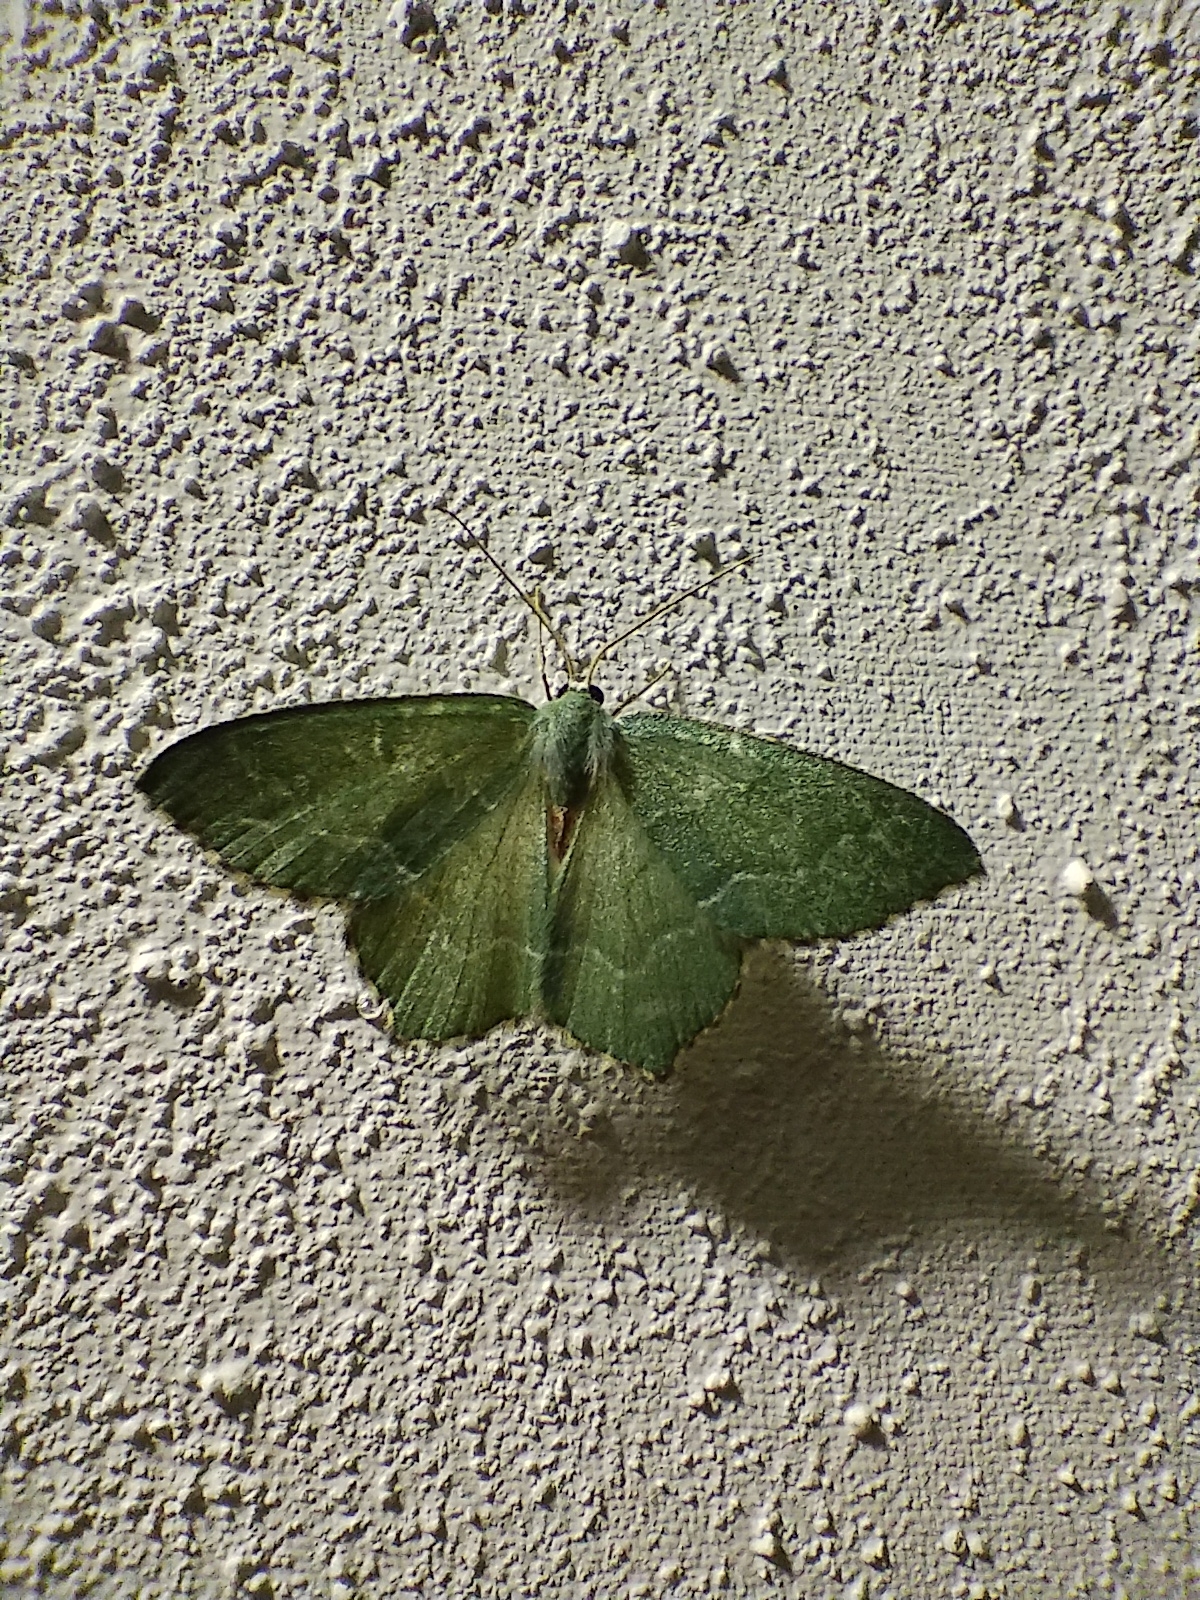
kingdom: Animalia
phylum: Arthropoda
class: Insecta
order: Lepidoptera
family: Geometridae
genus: Hemithea
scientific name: Hemithea aestivaria
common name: Common emerald
